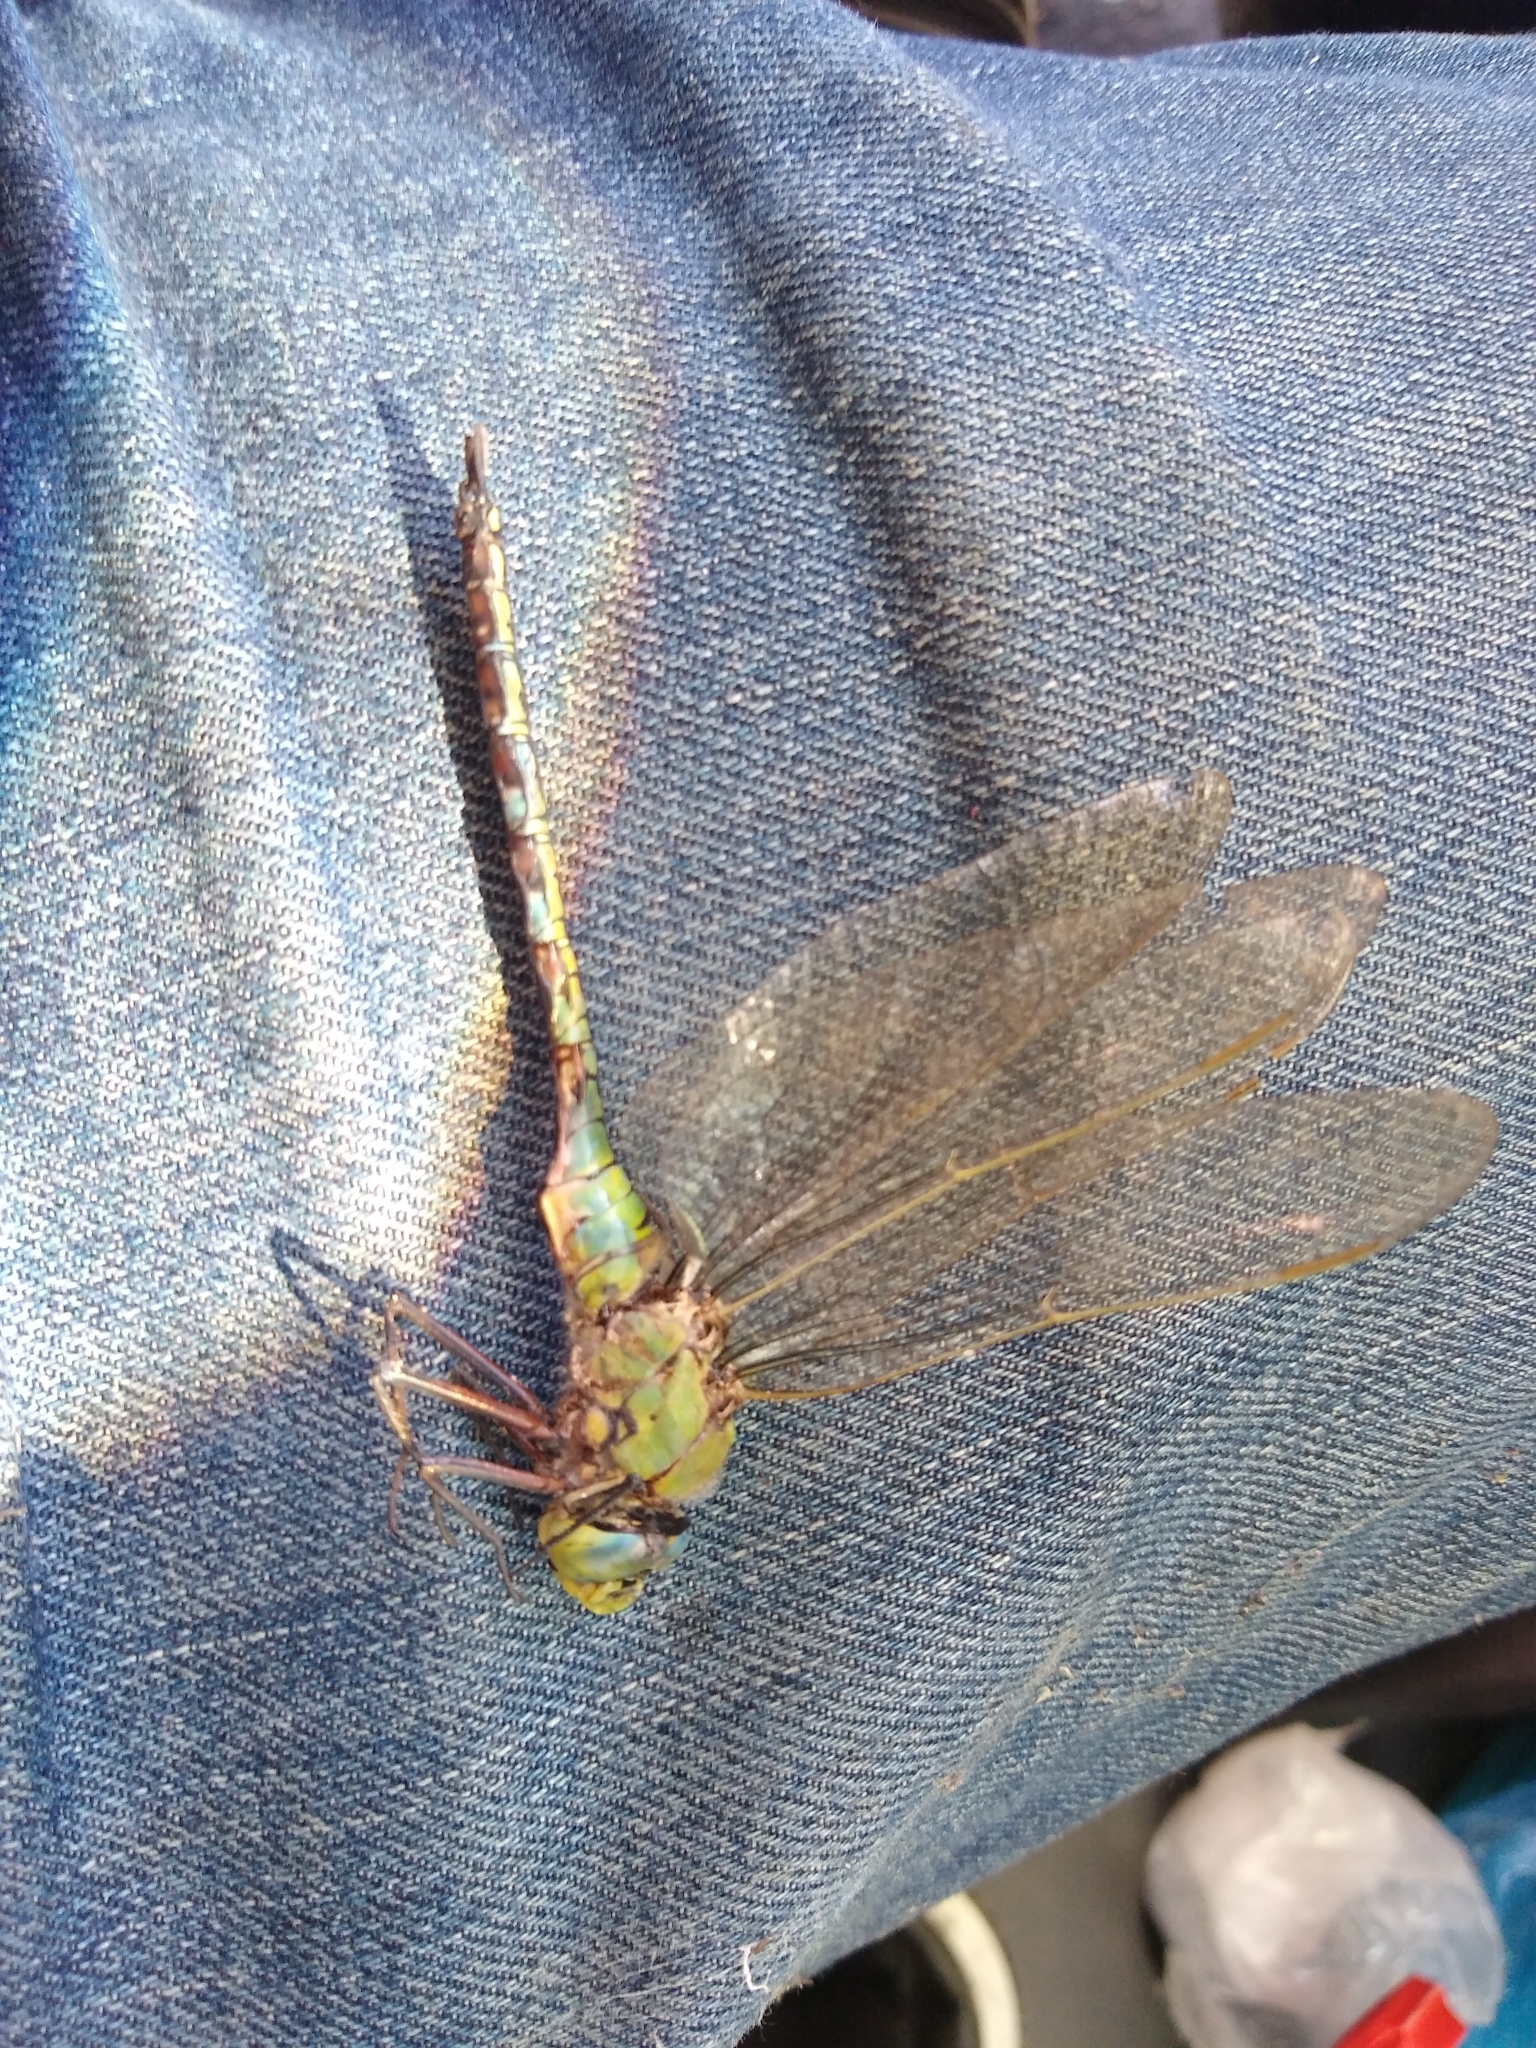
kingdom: Animalia
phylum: Arthropoda
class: Insecta
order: Odonata
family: Aeshnidae
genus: Anax
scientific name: Anax imperator
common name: Emperor dragonfly
